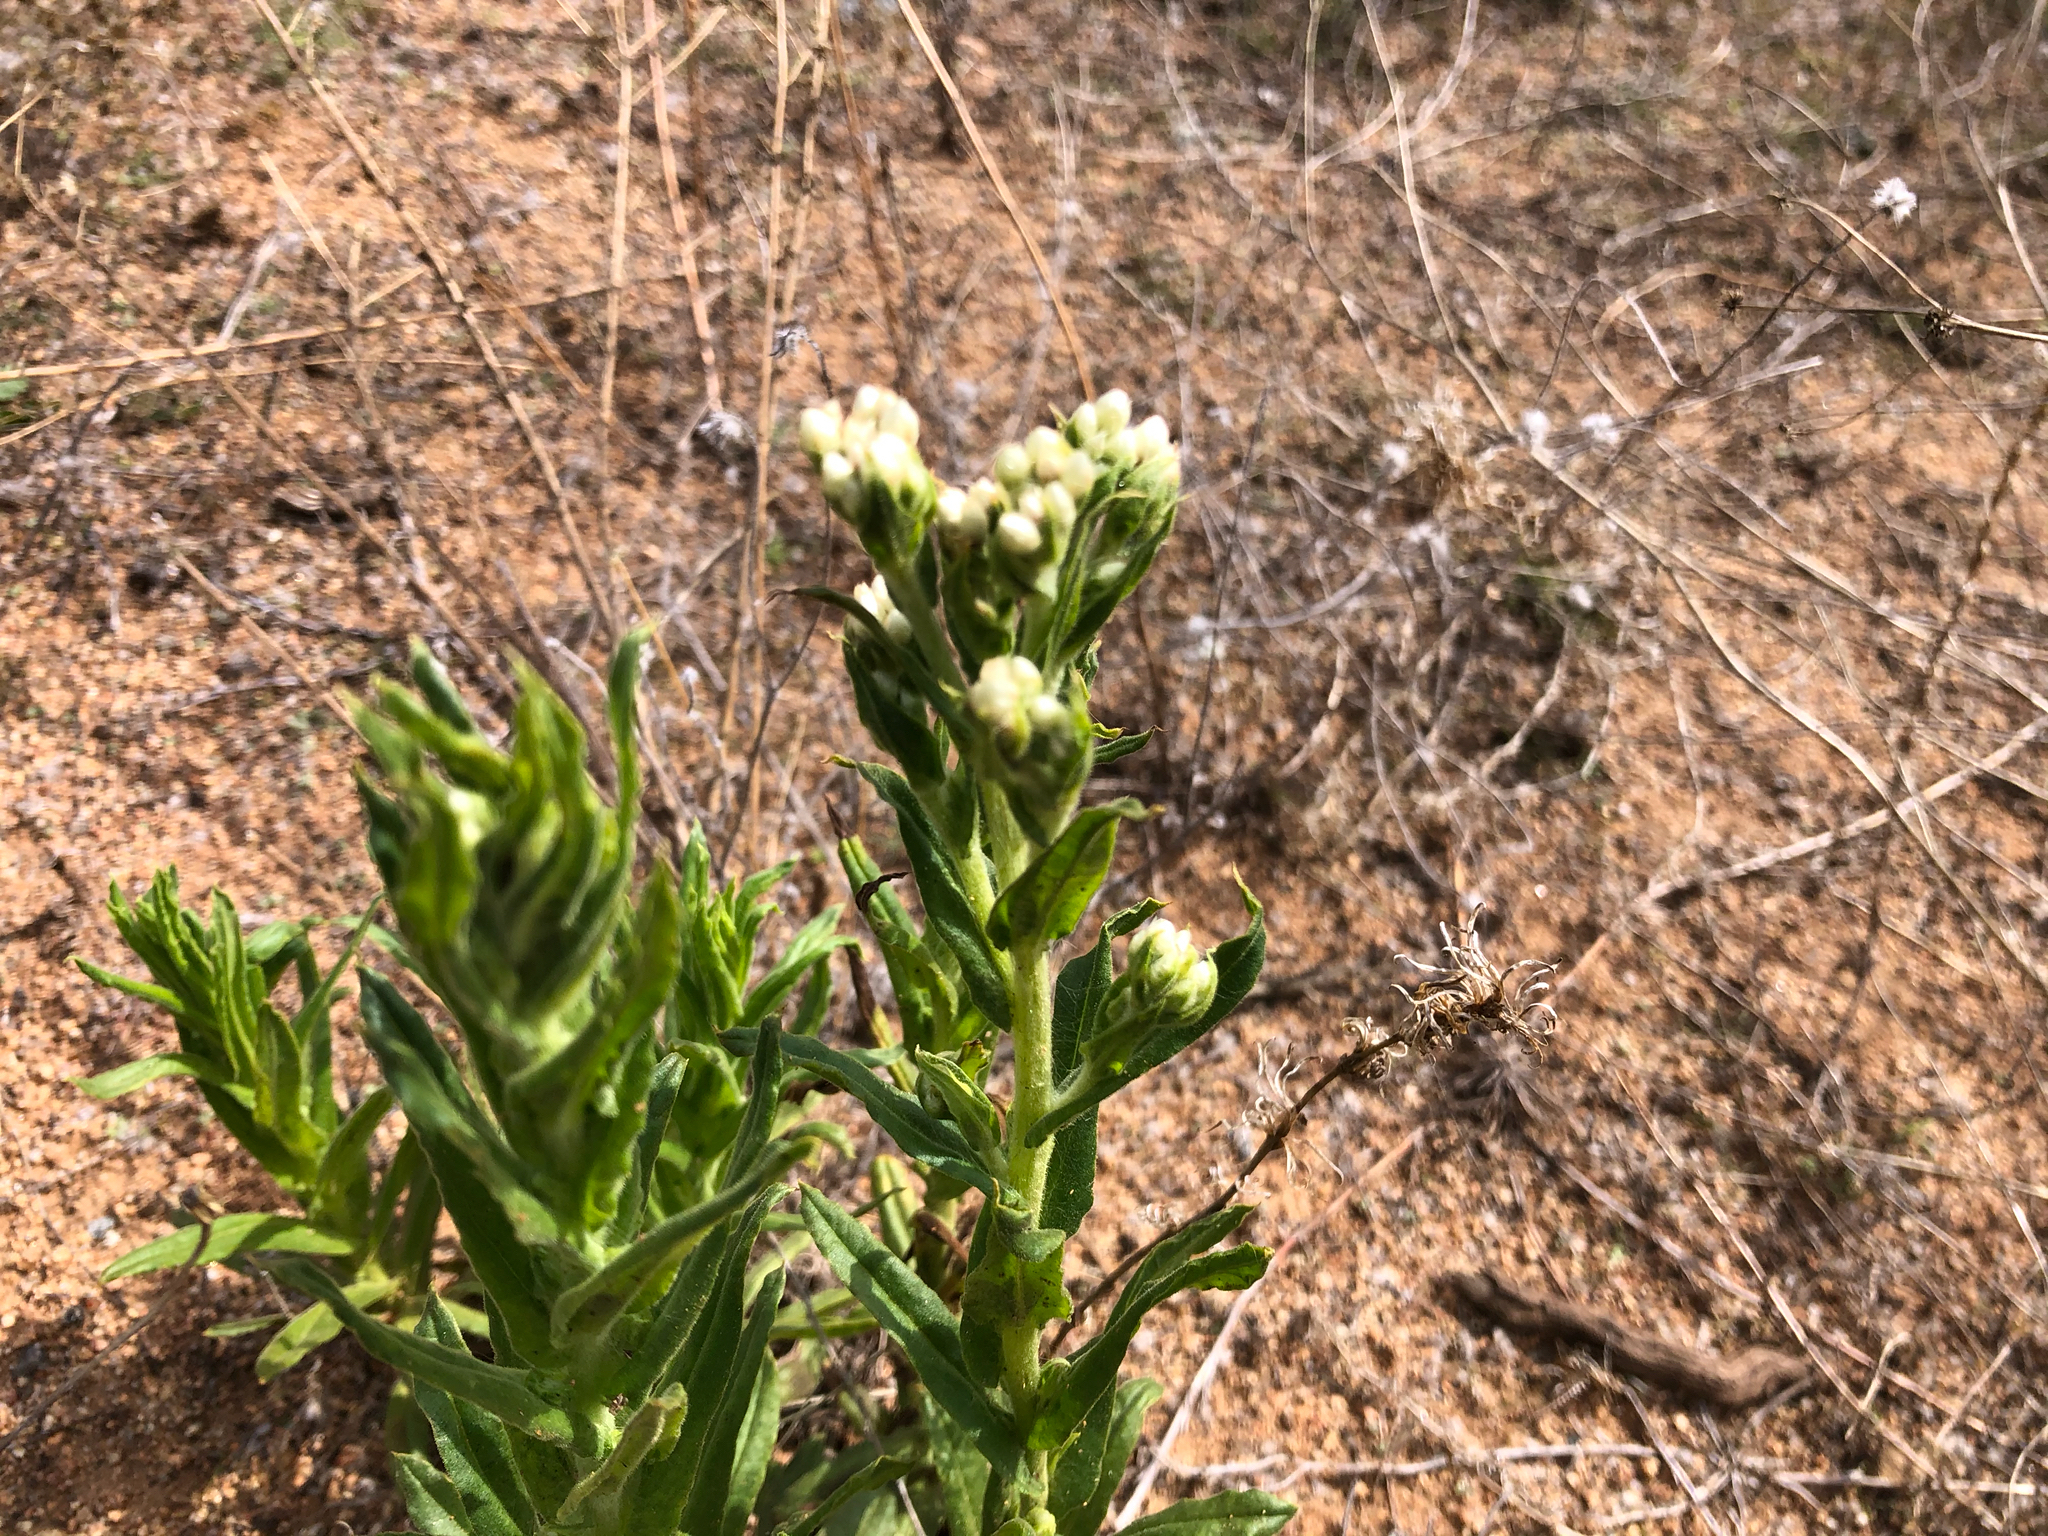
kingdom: Plantae
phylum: Tracheophyta
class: Magnoliopsida
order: Asterales
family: Asteraceae
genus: Pseudognaphalium
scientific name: Pseudognaphalium californicum
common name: California rabbit-tobacco
